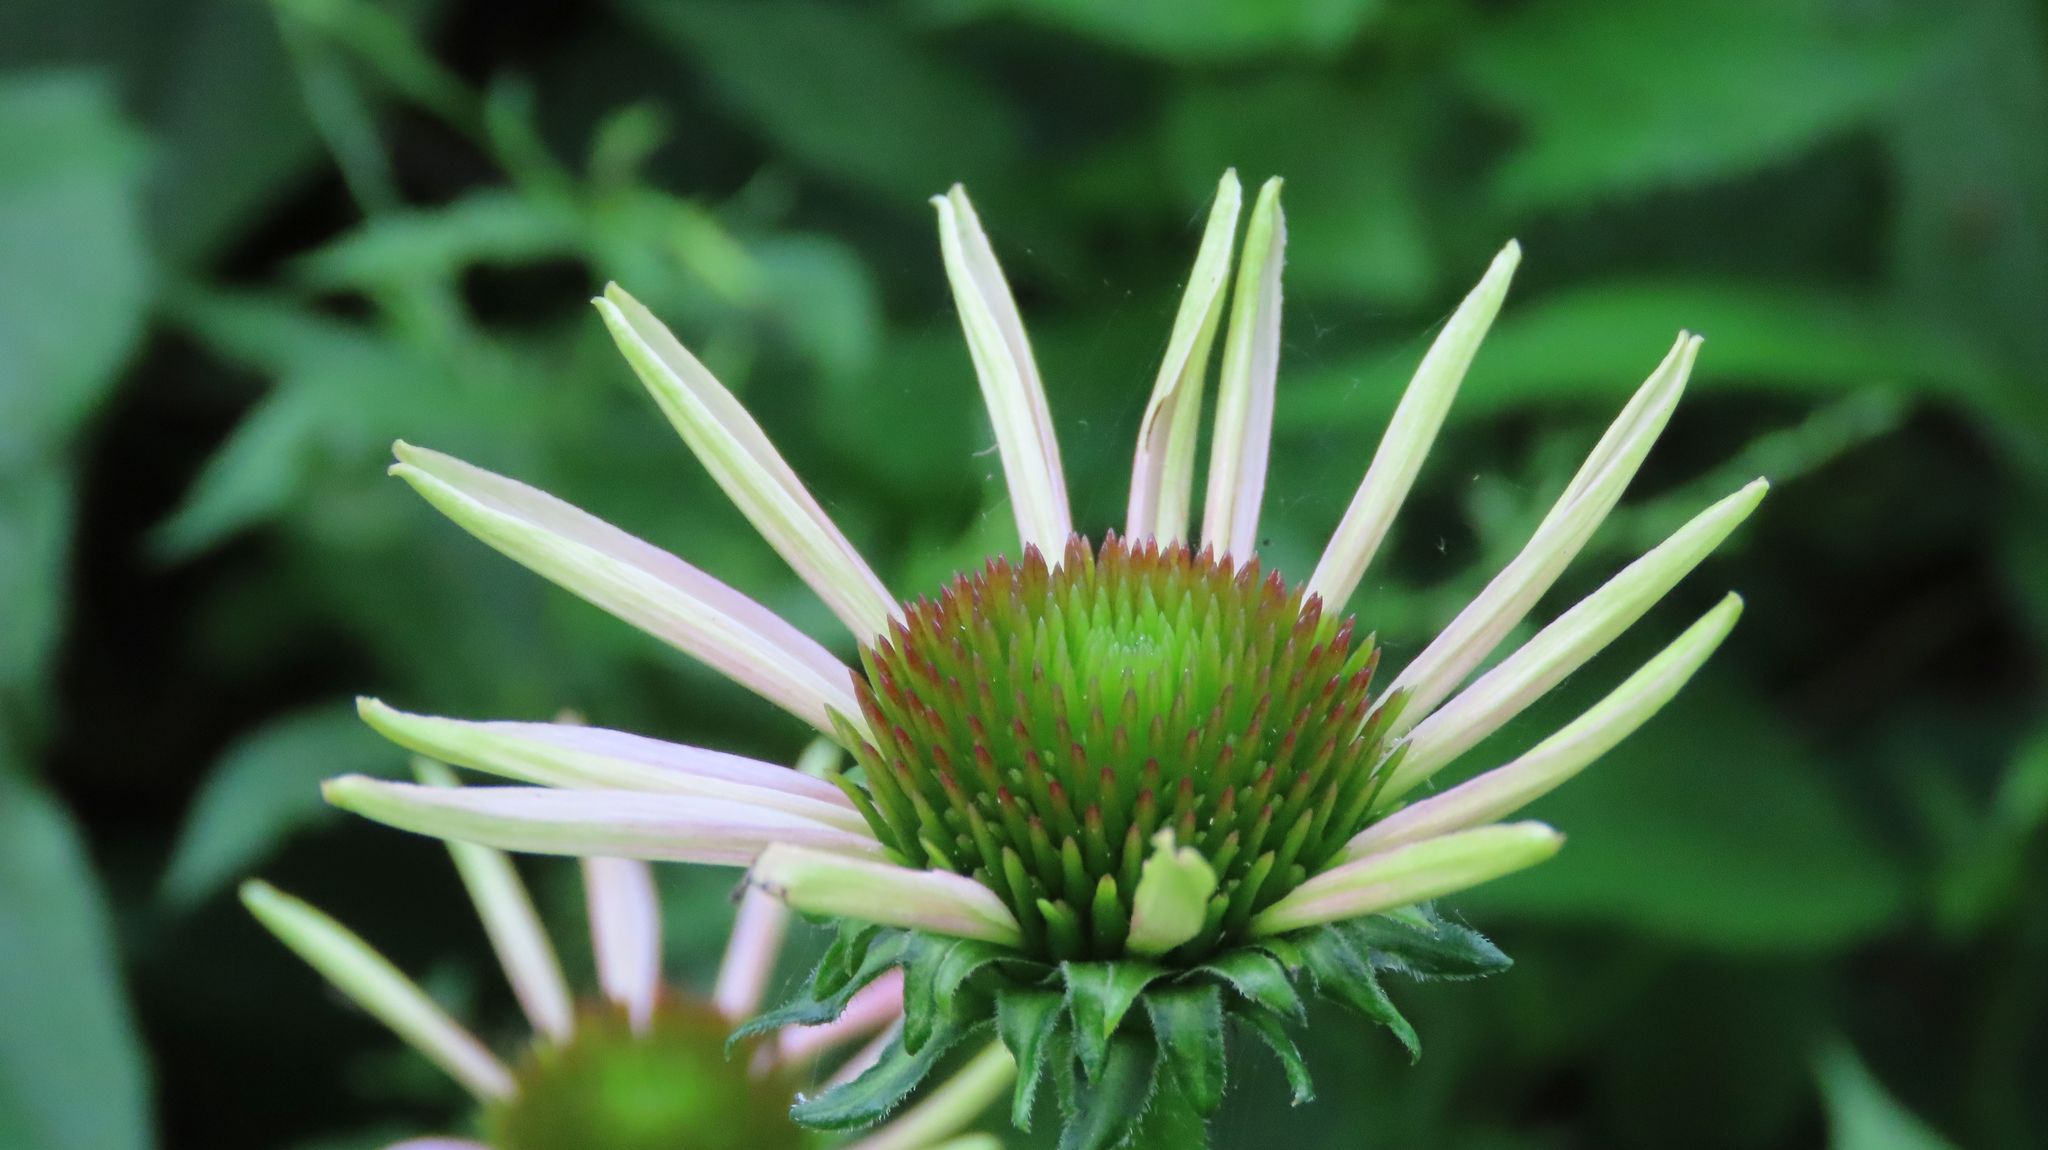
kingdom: Plantae
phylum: Tracheophyta
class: Magnoliopsida
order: Asterales
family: Asteraceae
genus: Echinacea
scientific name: Echinacea purpurea
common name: Broad-leaved purple coneflower
